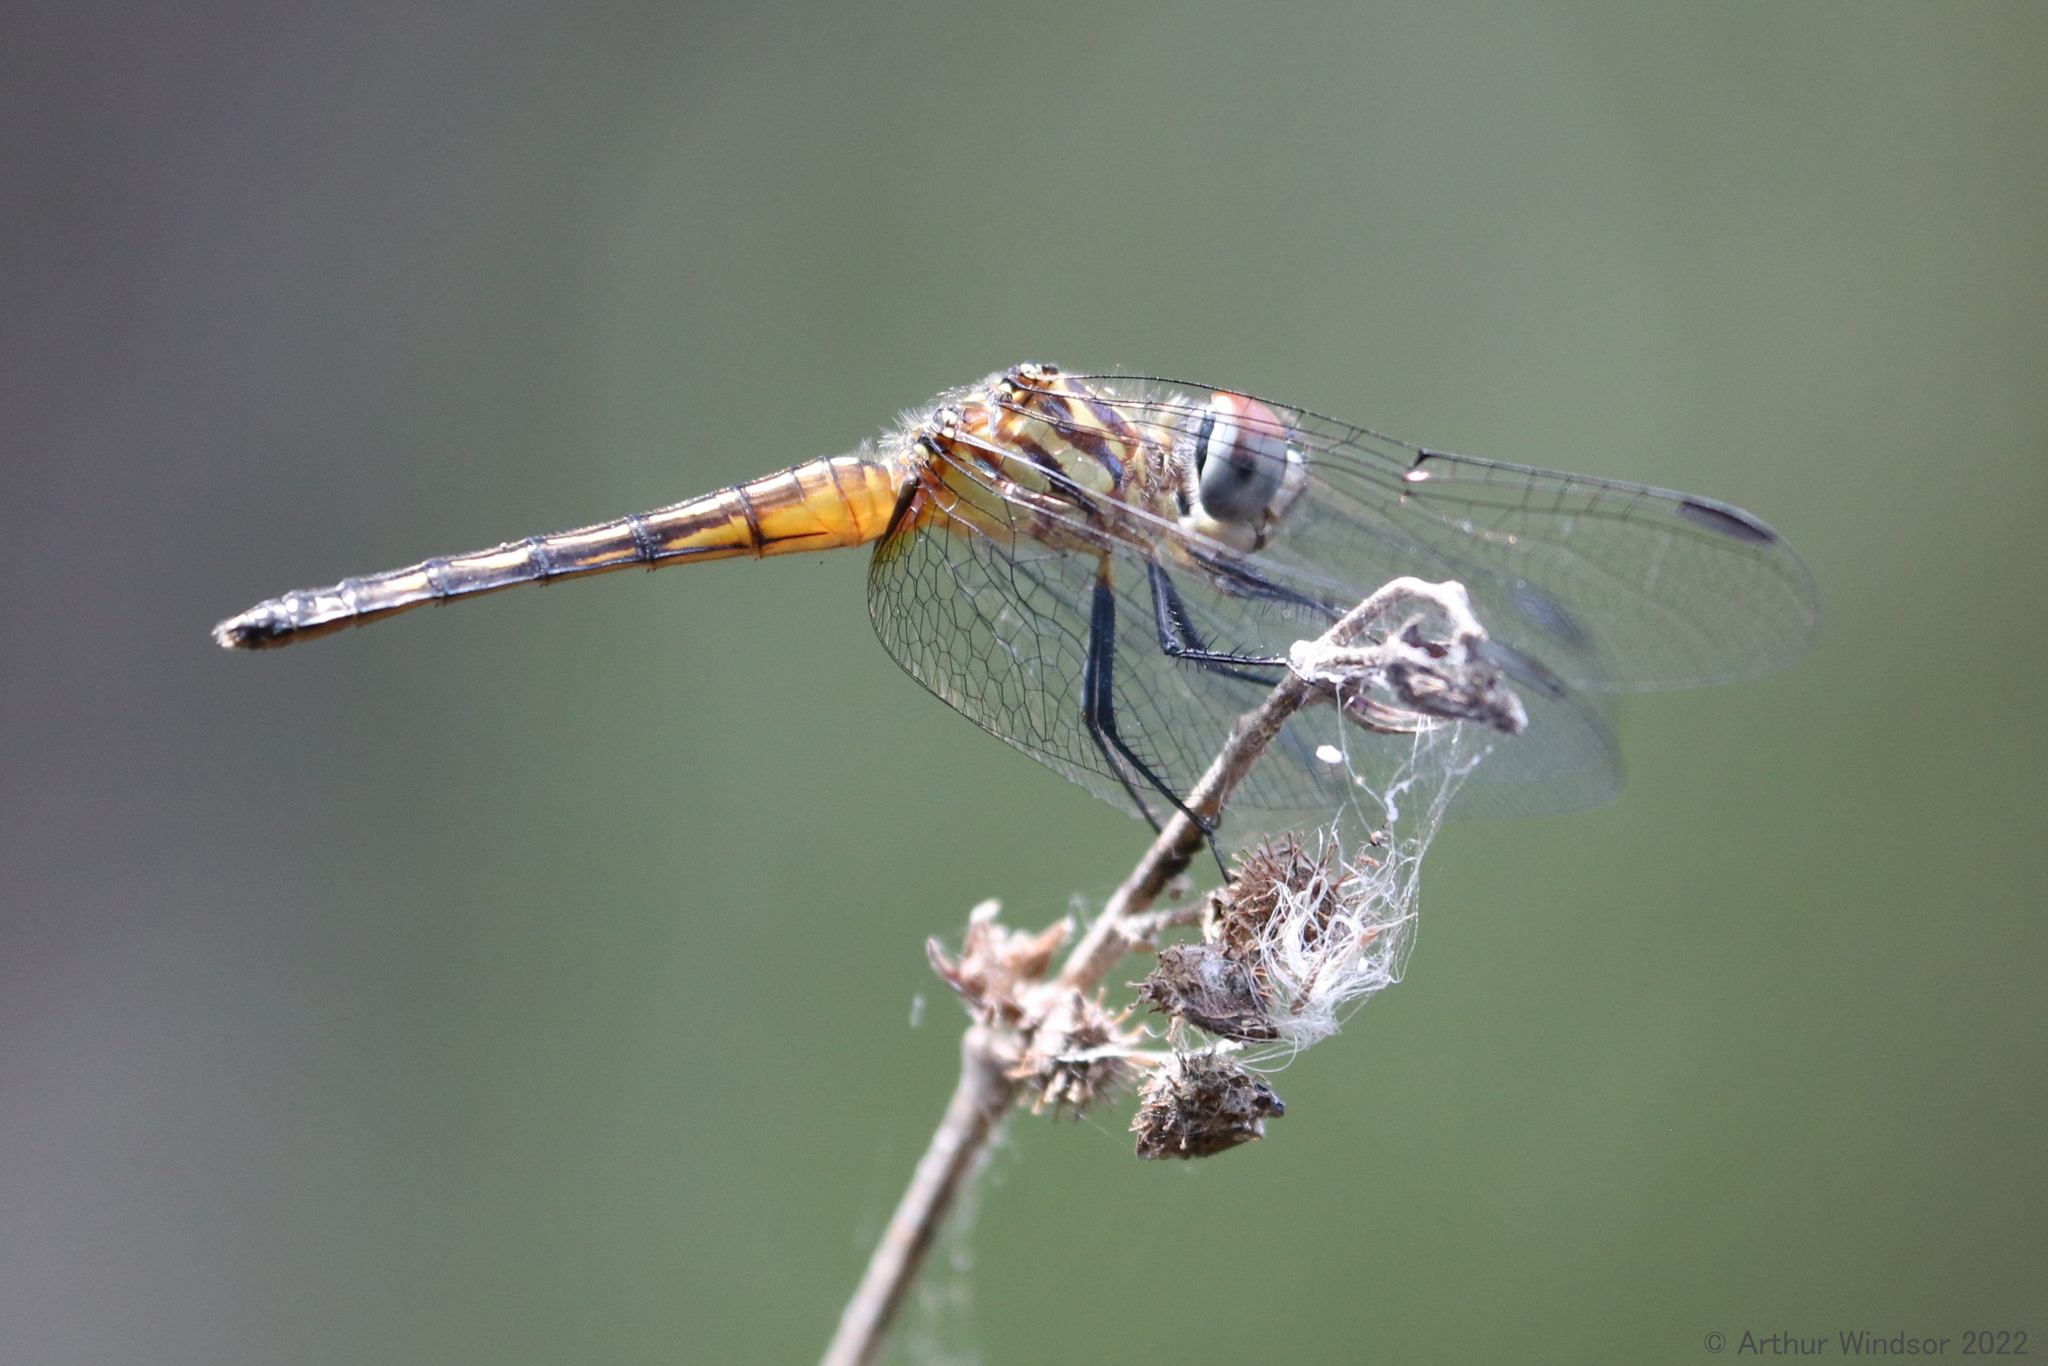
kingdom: Animalia
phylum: Arthropoda
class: Insecta
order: Odonata
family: Libellulidae
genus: Pachydiplax
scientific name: Pachydiplax longipennis
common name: Blue dasher
